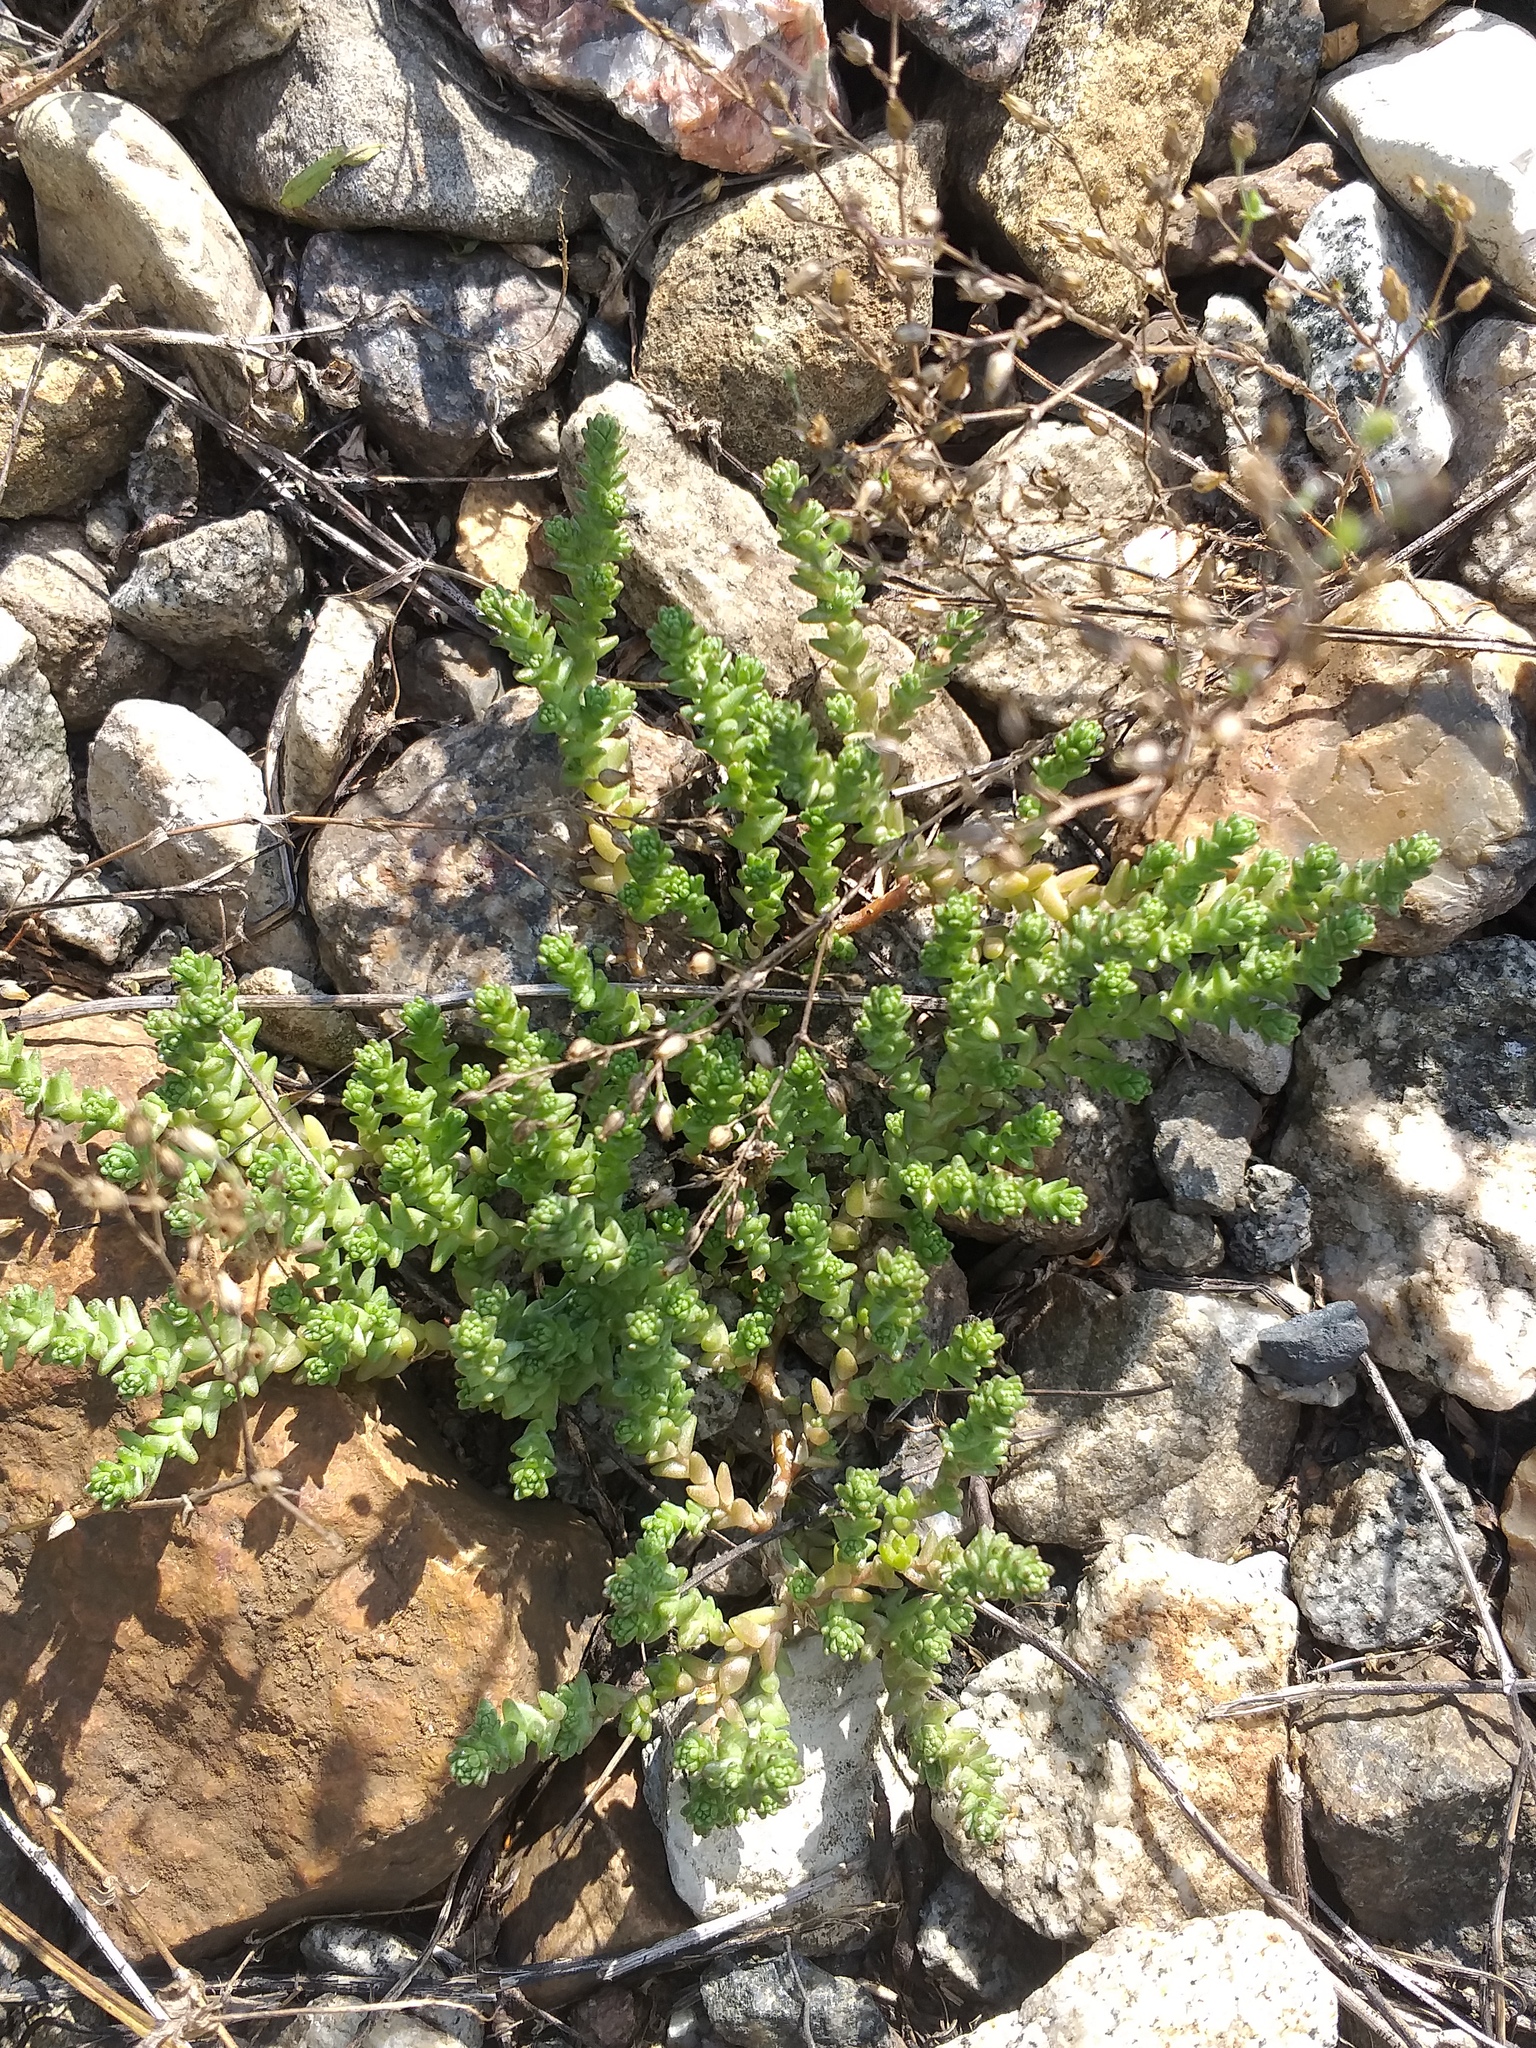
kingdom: Plantae
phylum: Tracheophyta
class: Magnoliopsida
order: Saxifragales
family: Crassulaceae
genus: Sedum
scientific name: Sedum acre
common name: Biting stonecrop
